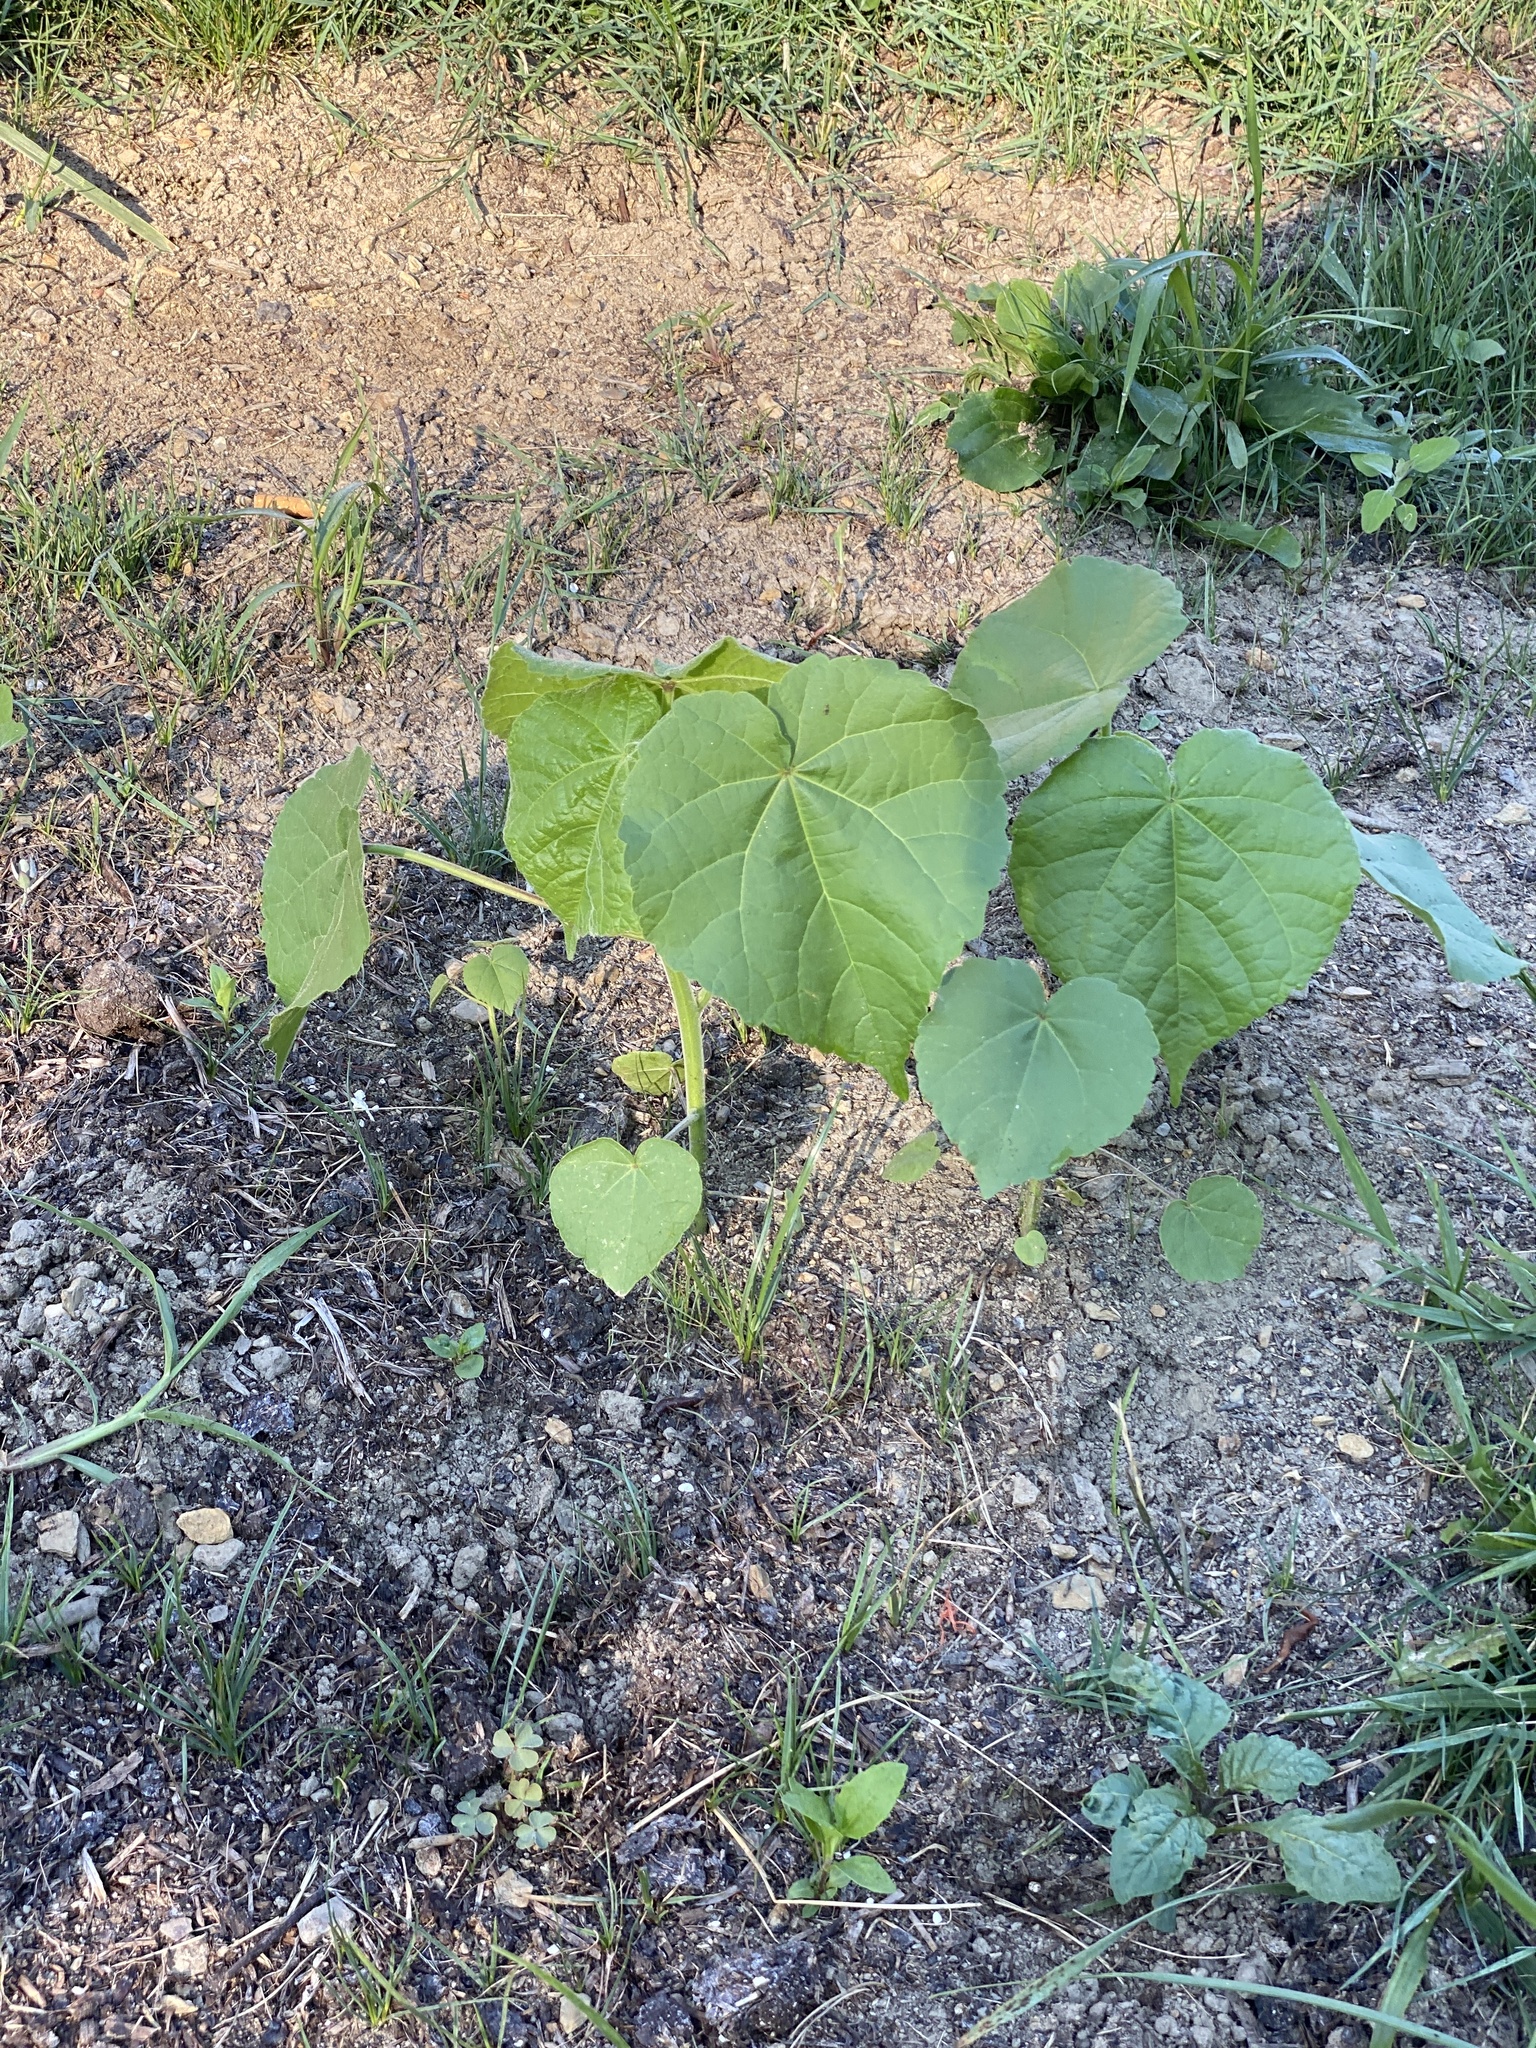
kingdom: Plantae
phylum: Tracheophyta
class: Magnoliopsida
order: Malvales
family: Malvaceae
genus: Abutilon
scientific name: Abutilon theophrasti
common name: Velvetleaf
